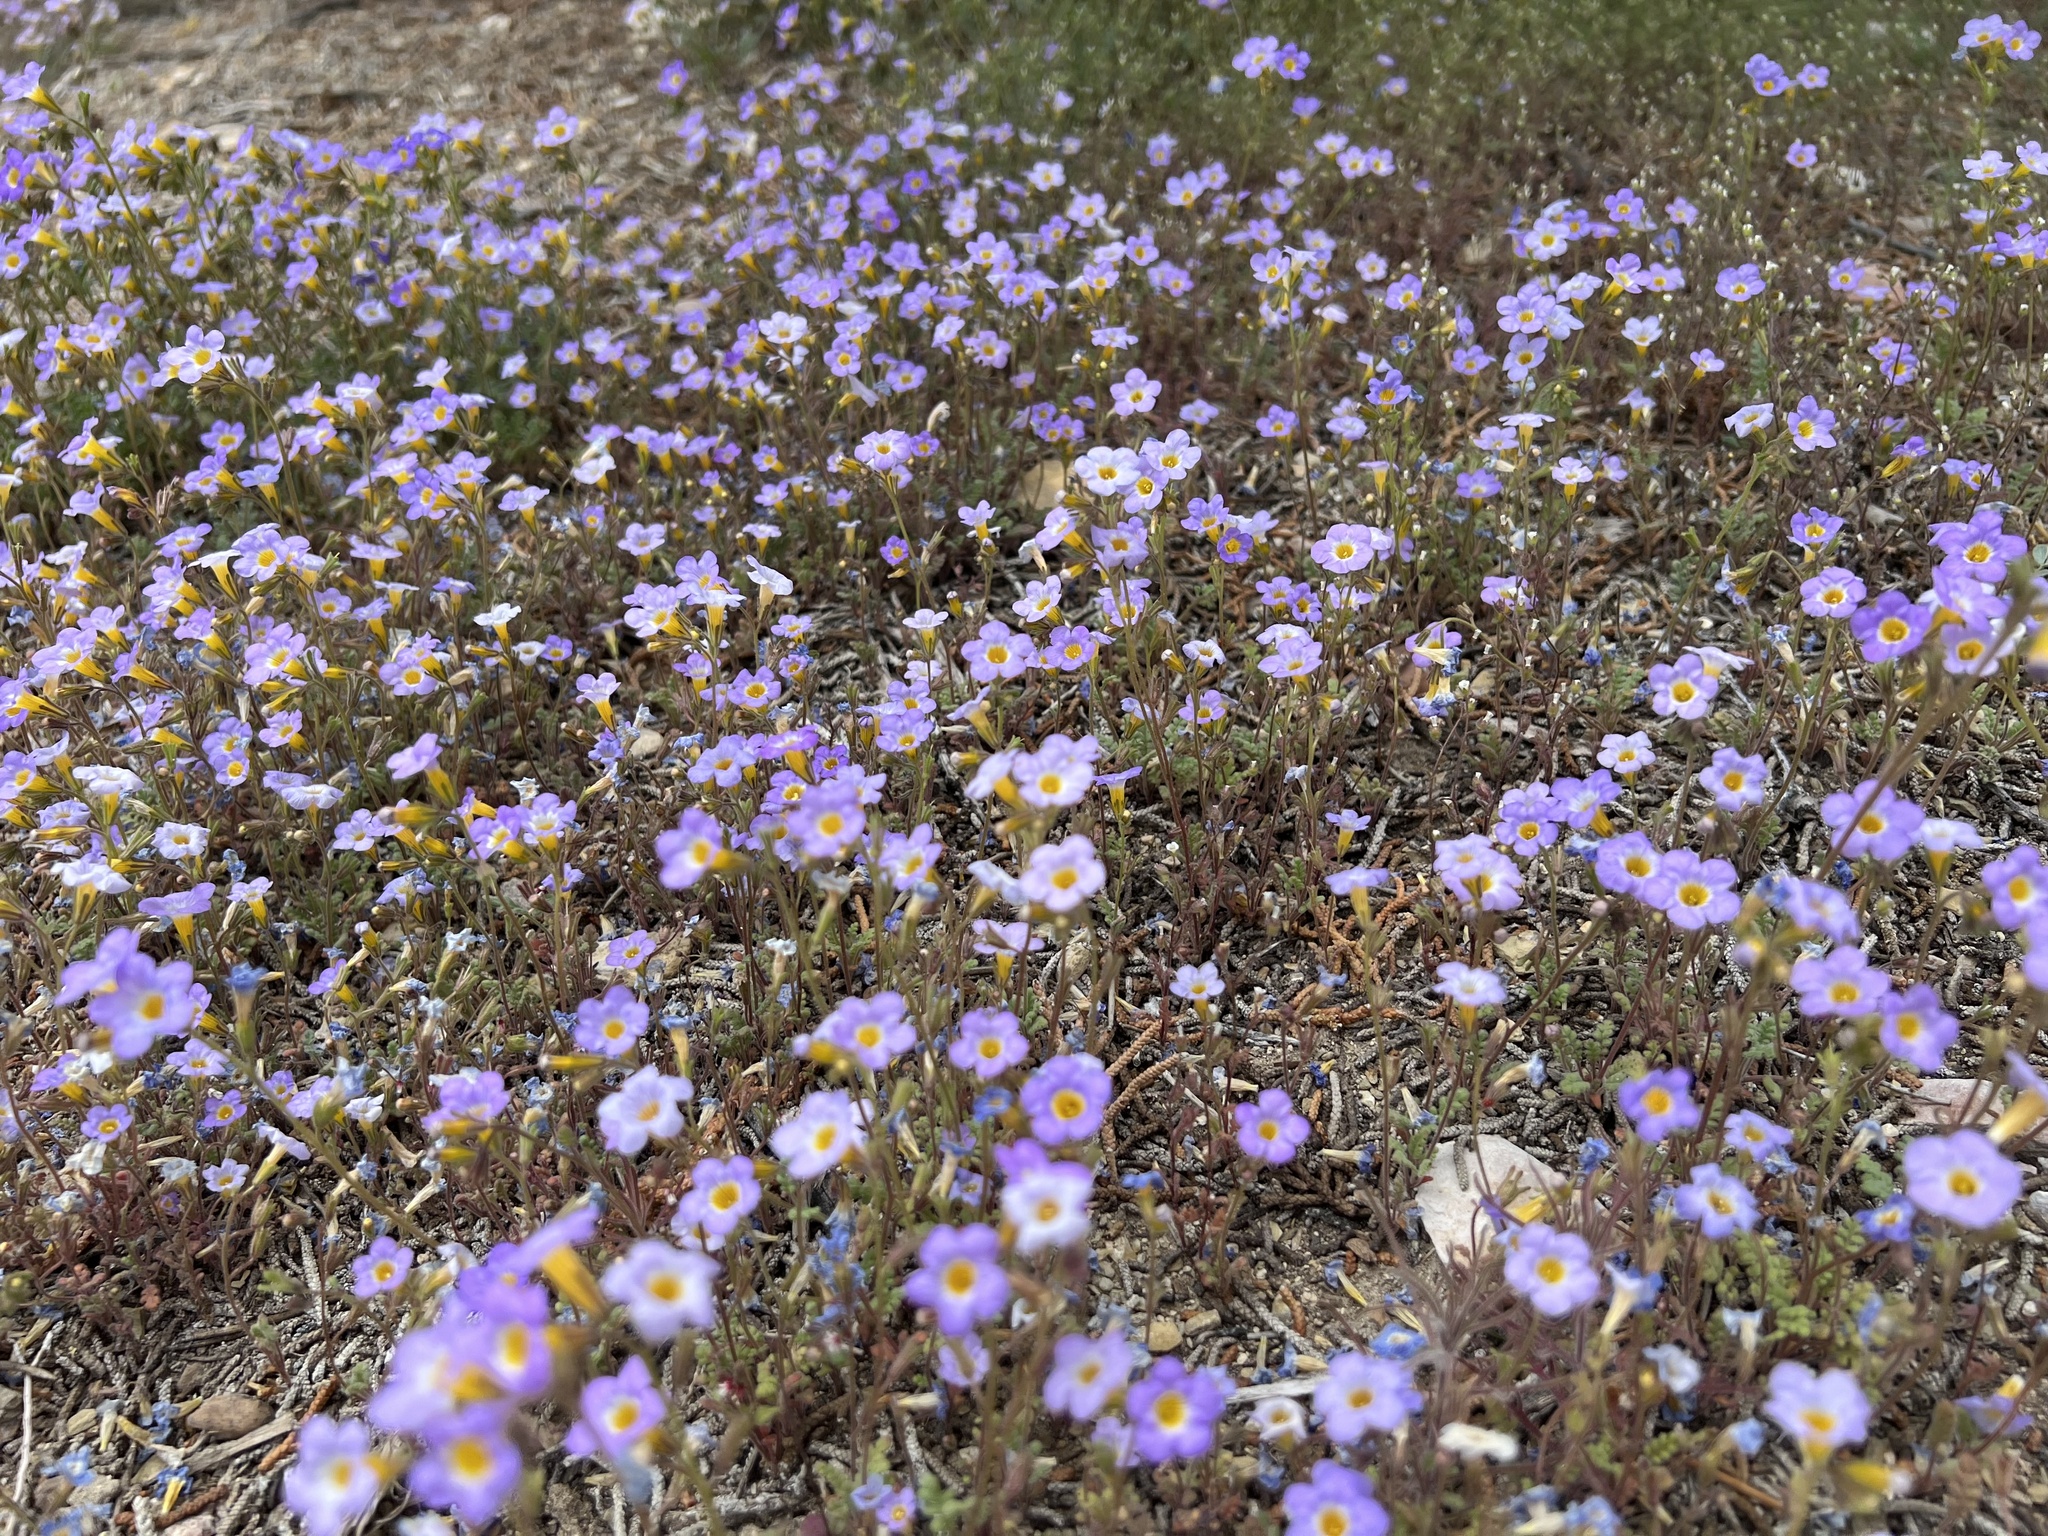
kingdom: Plantae
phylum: Tracheophyta
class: Magnoliopsida
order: Boraginales
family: Hydrophyllaceae
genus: Phacelia
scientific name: Phacelia fremontii
